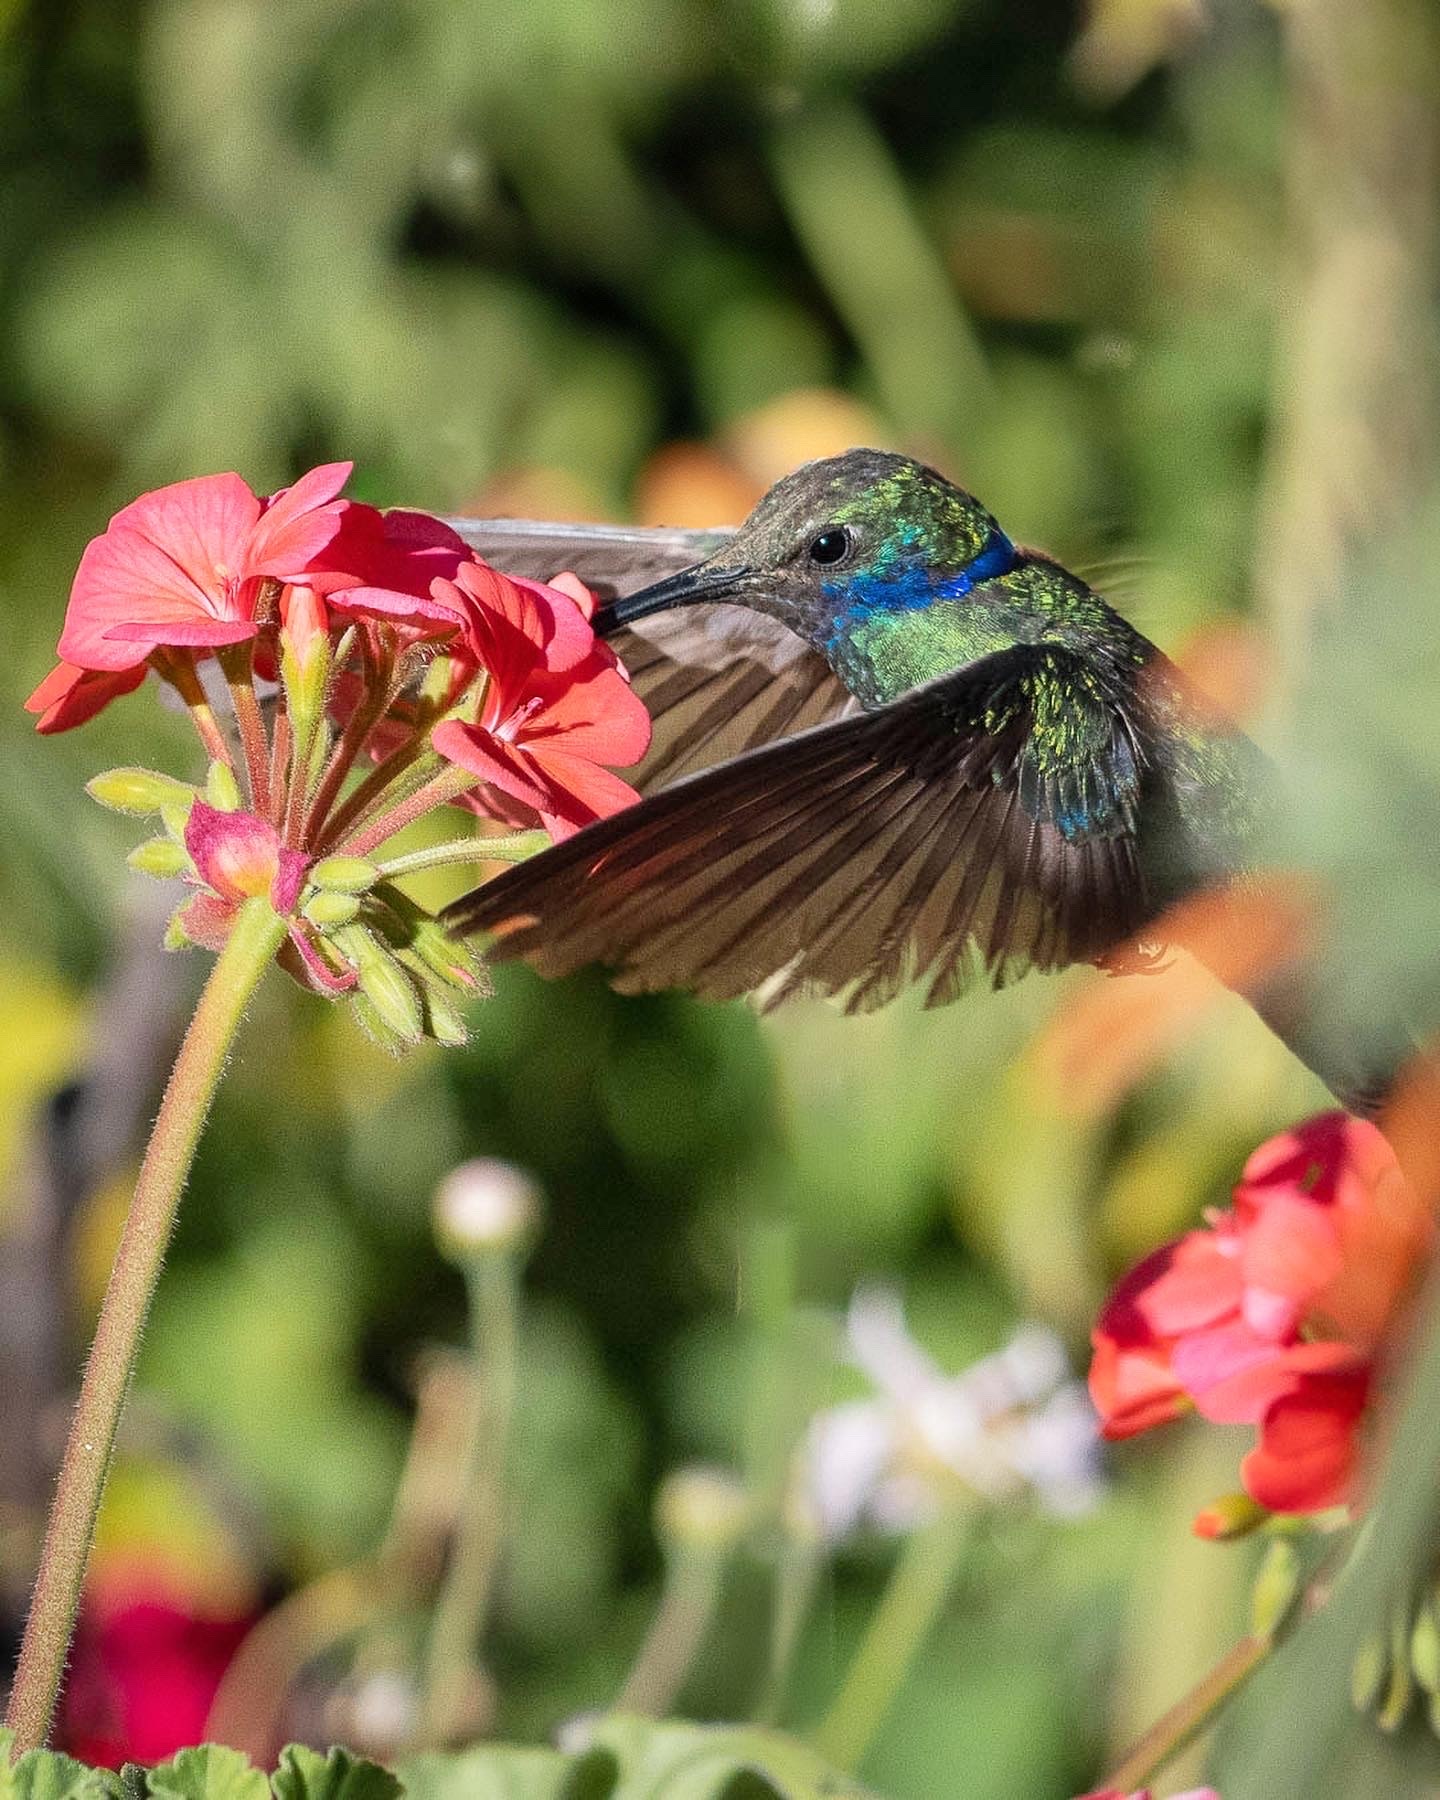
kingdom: Animalia
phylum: Chordata
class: Aves
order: Apodiformes
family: Trochilidae
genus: Colibri
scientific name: Colibri coruscans
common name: Sparkling violetear
